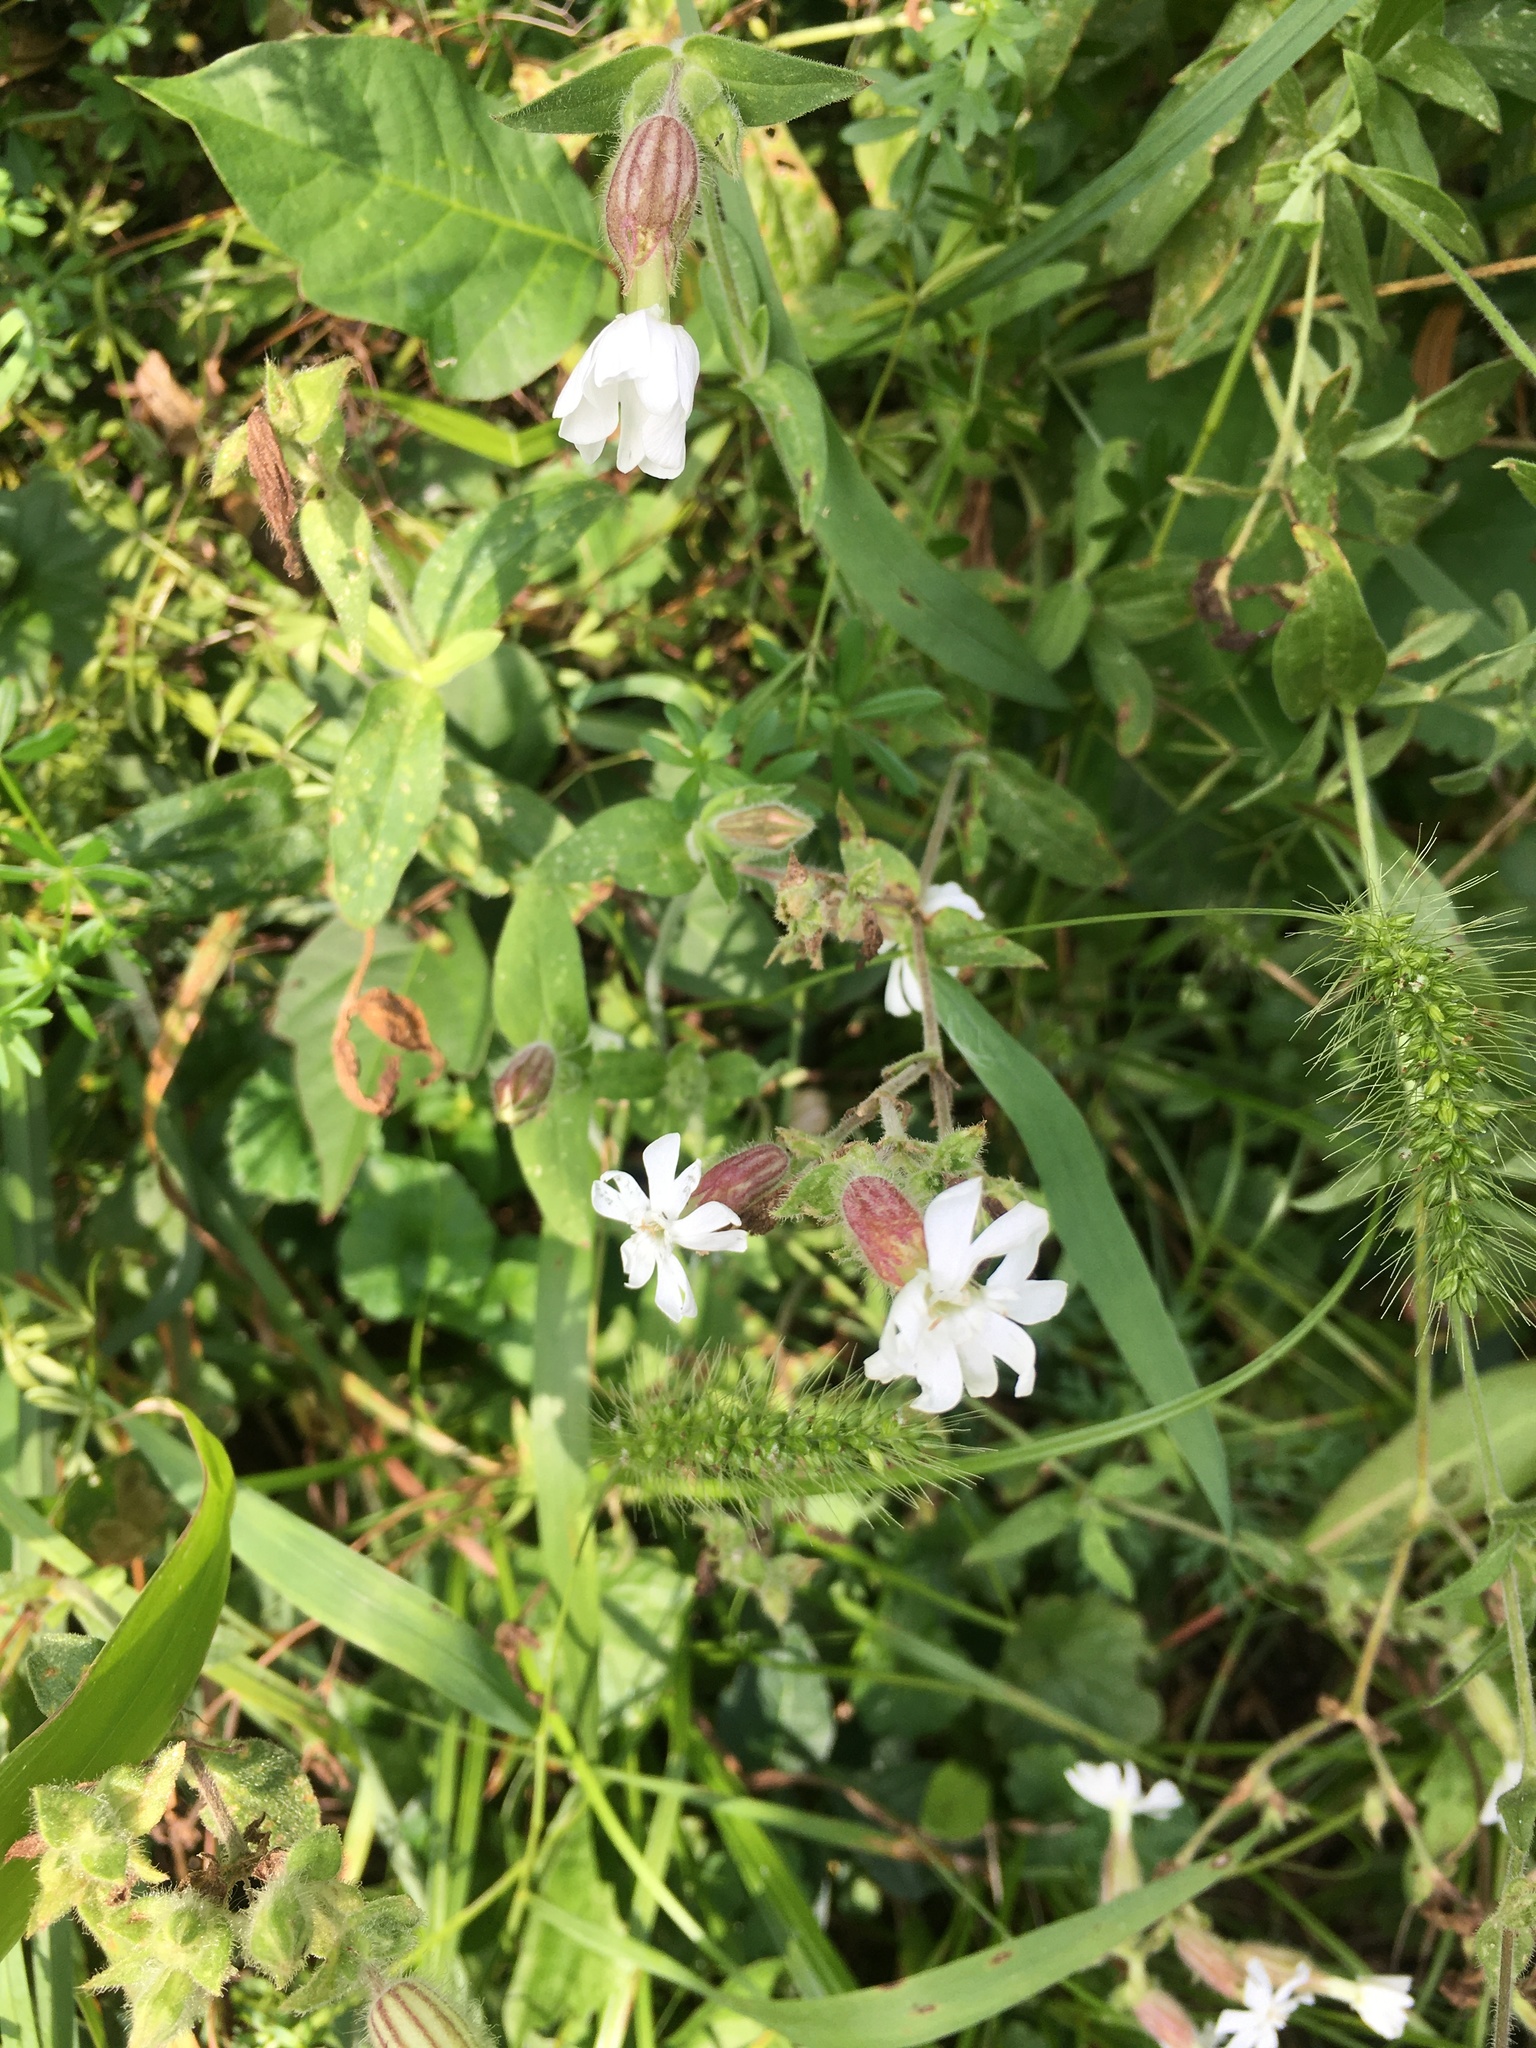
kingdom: Plantae
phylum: Tracheophyta
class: Magnoliopsida
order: Caryophyllales
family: Caryophyllaceae
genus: Silene
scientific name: Silene latifolia
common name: White campion
